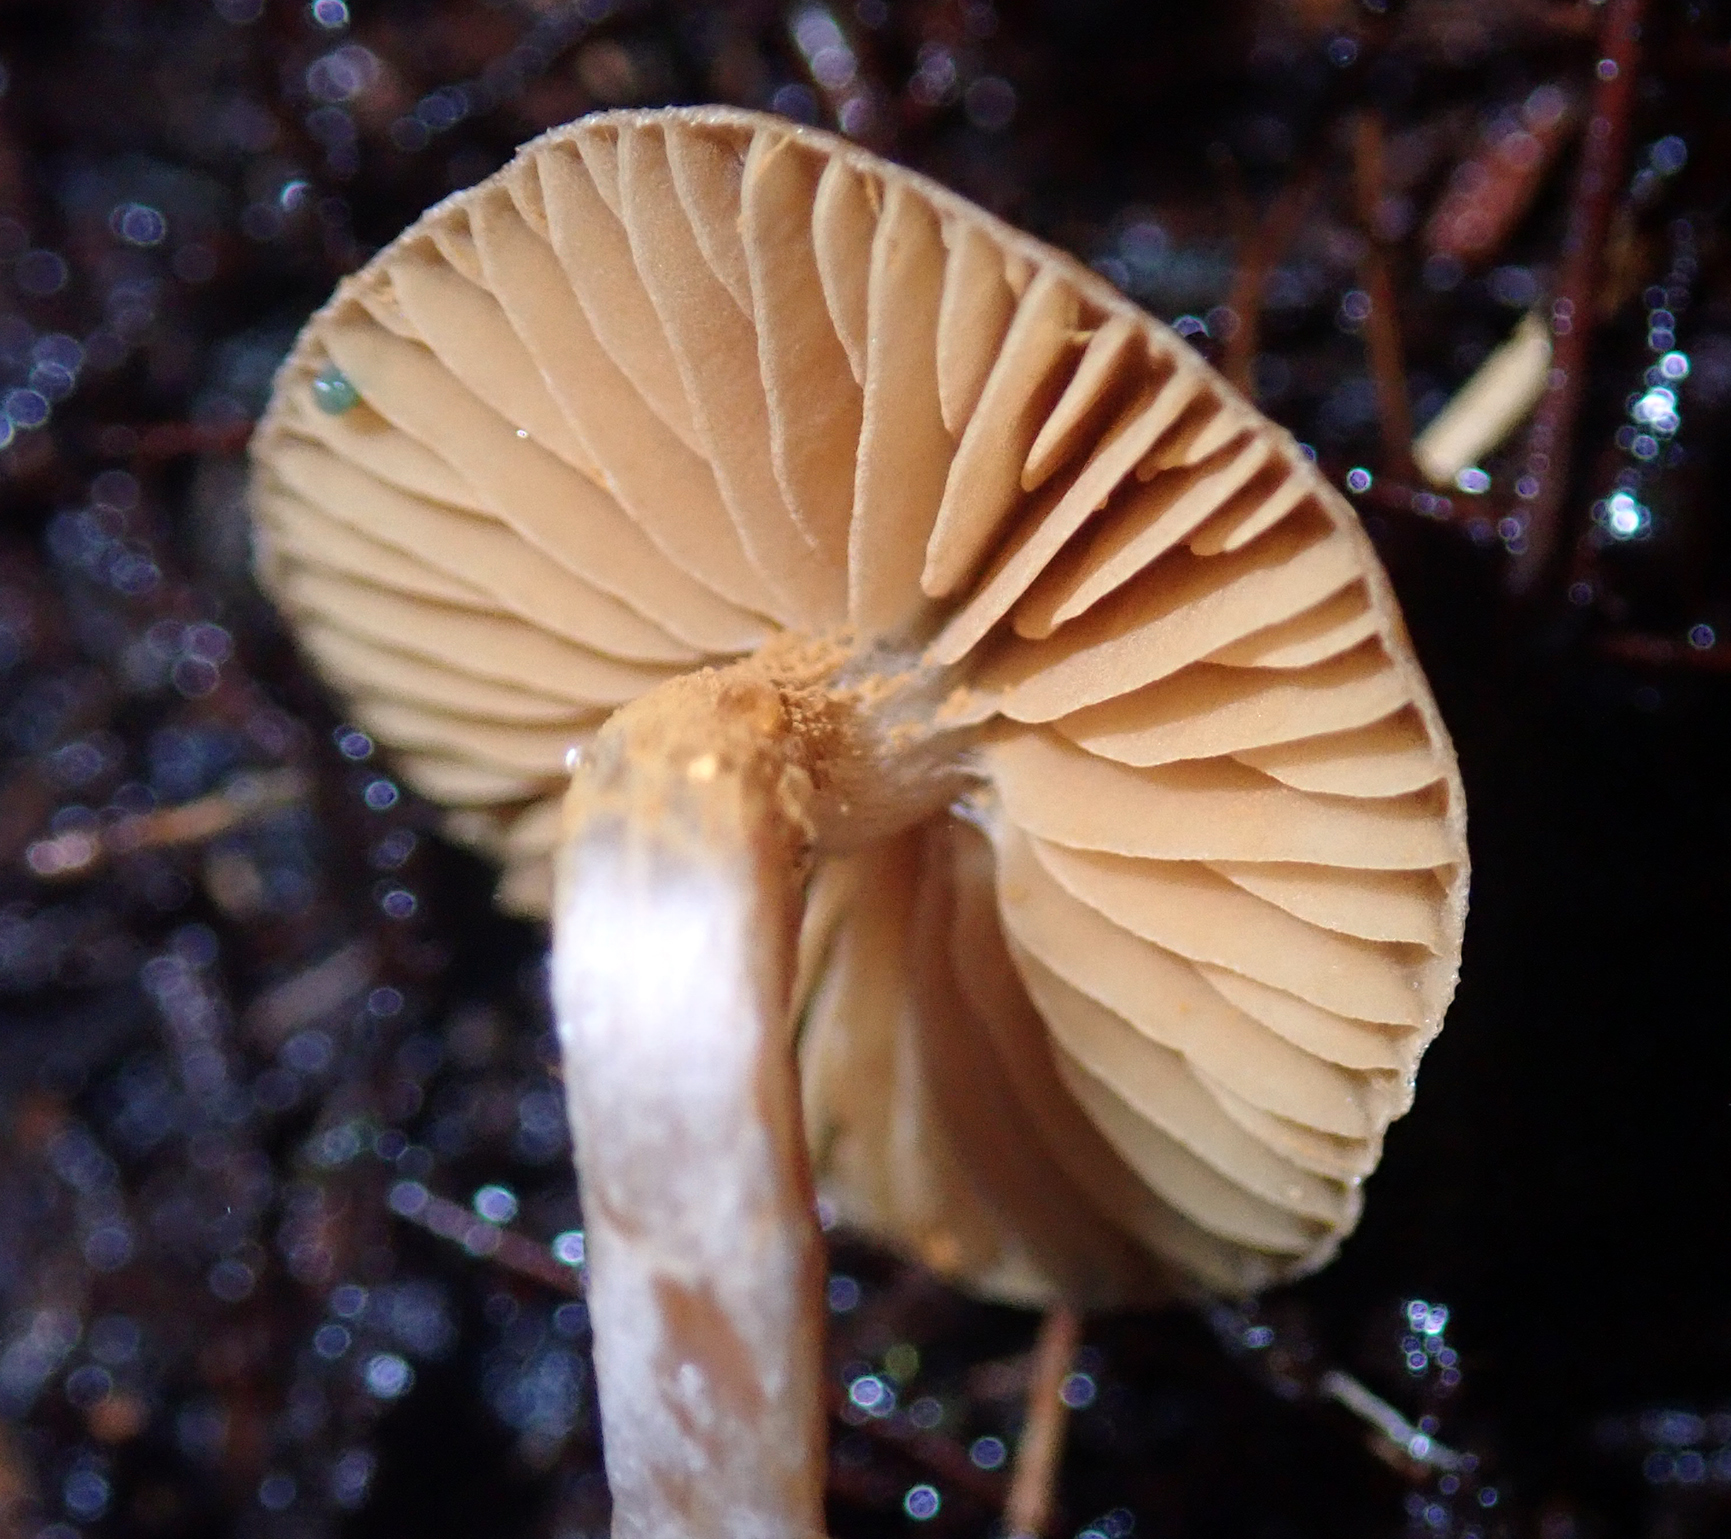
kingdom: Fungi
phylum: Basidiomycota
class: Agaricomycetes
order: Agaricales
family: Cortinariaceae
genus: Cortinarius
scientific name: Cortinarius waiporianus
